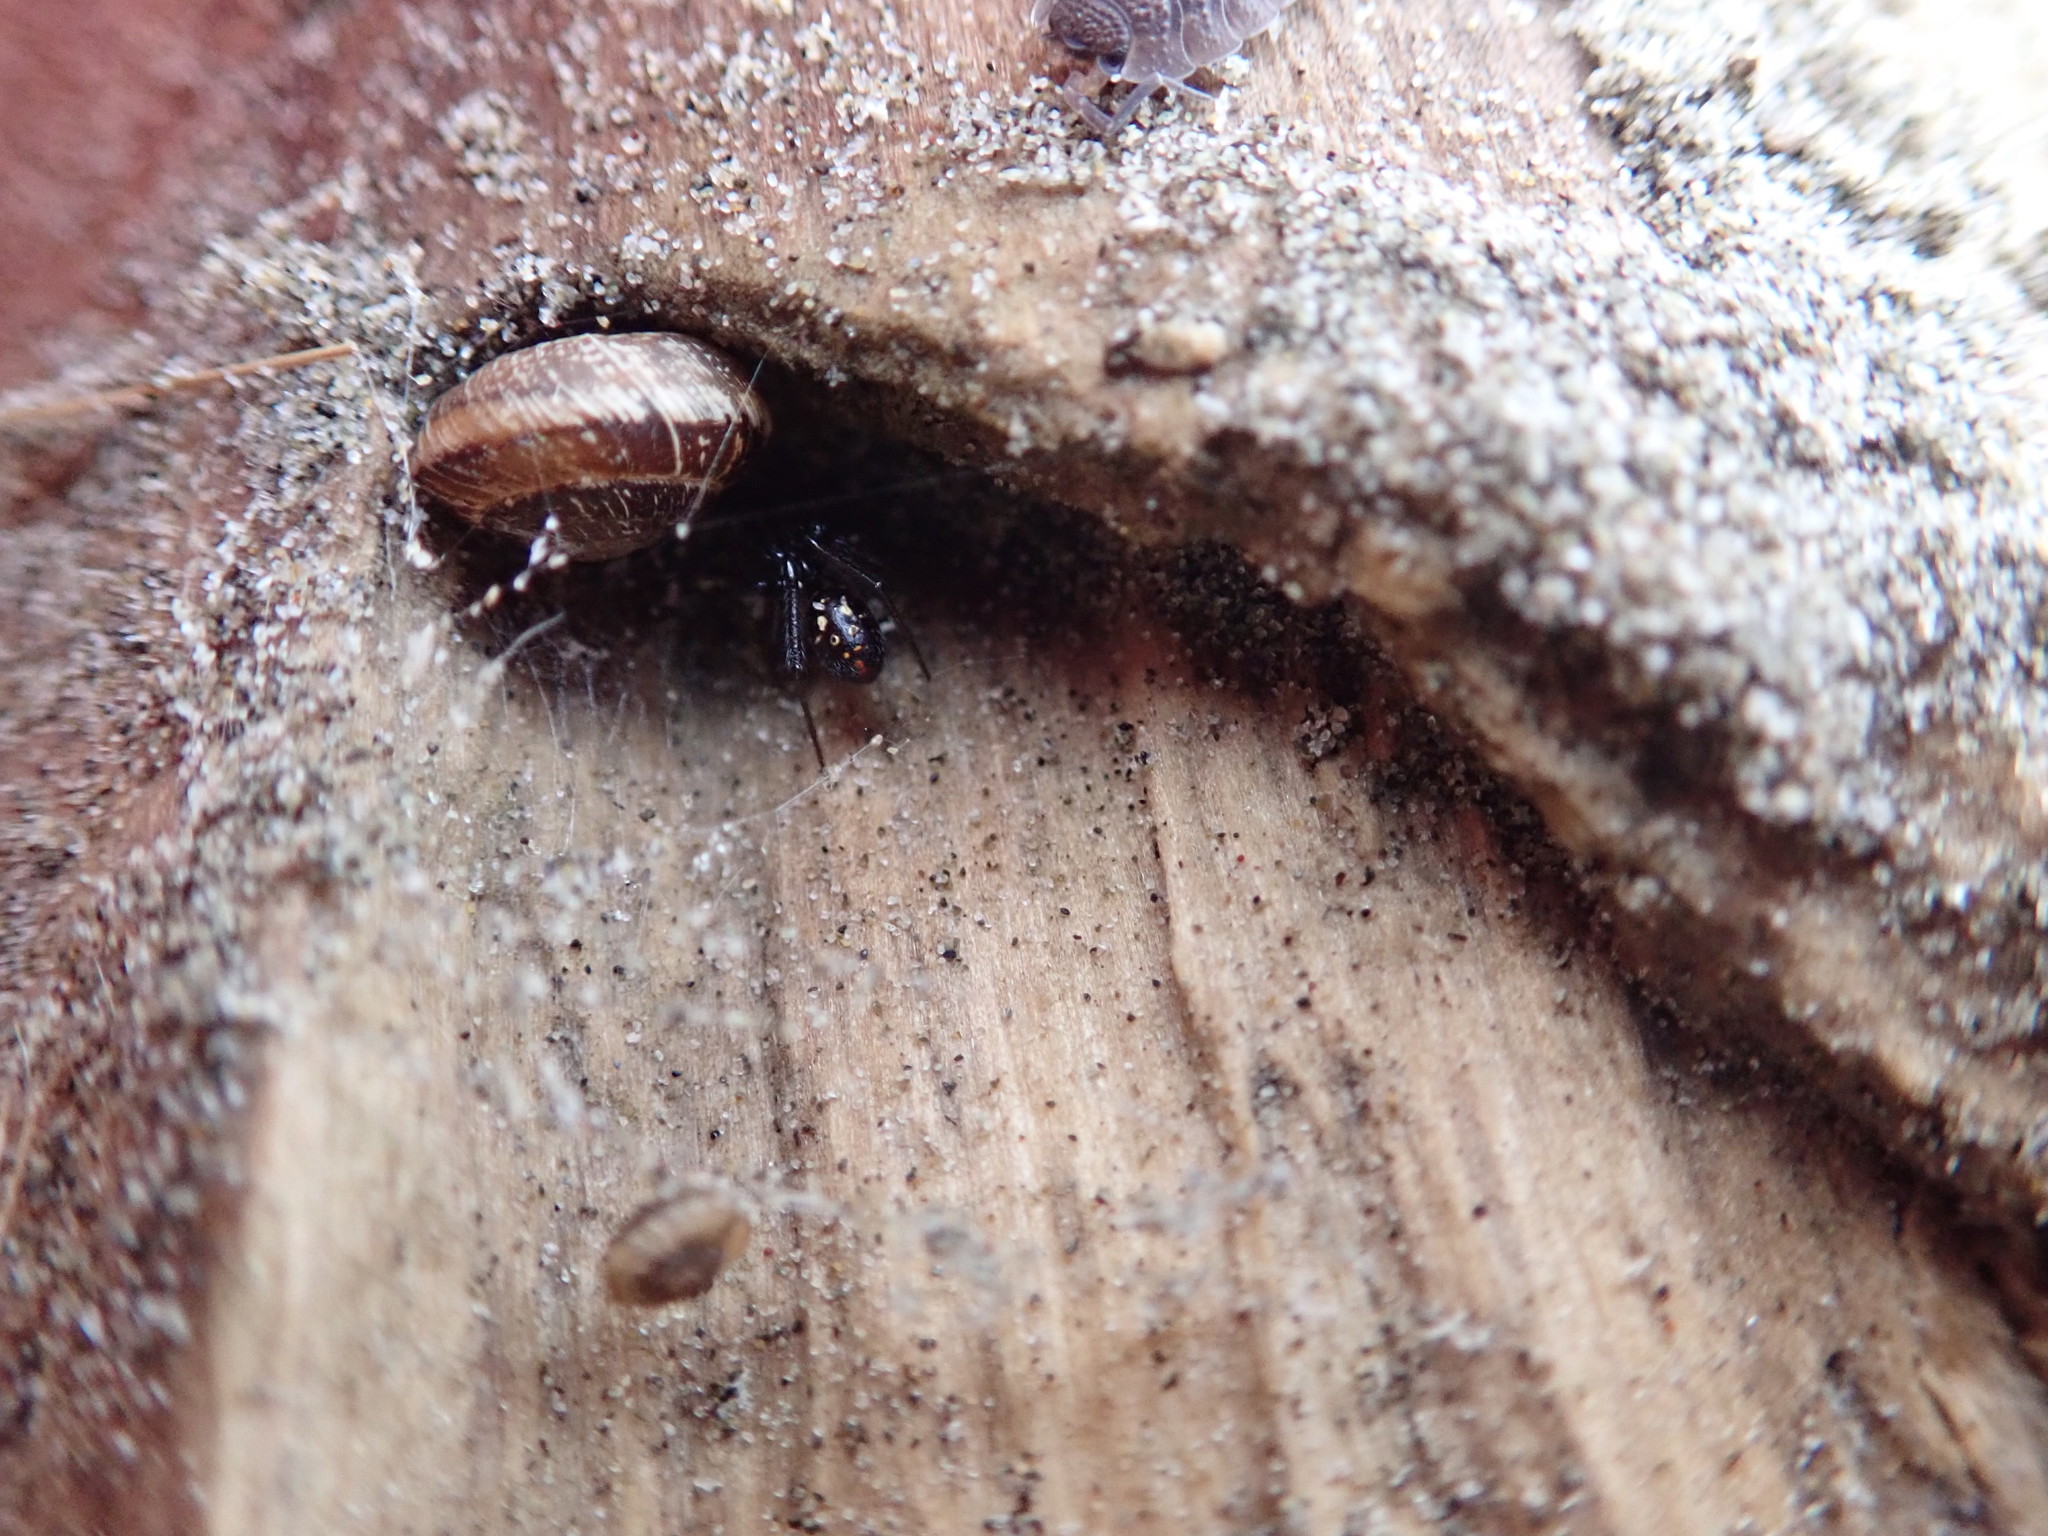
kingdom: Animalia
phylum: Arthropoda
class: Arachnida
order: Araneae
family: Theridiidae
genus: Steatoda
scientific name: Steatoda capensis
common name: Cobweb weaver
